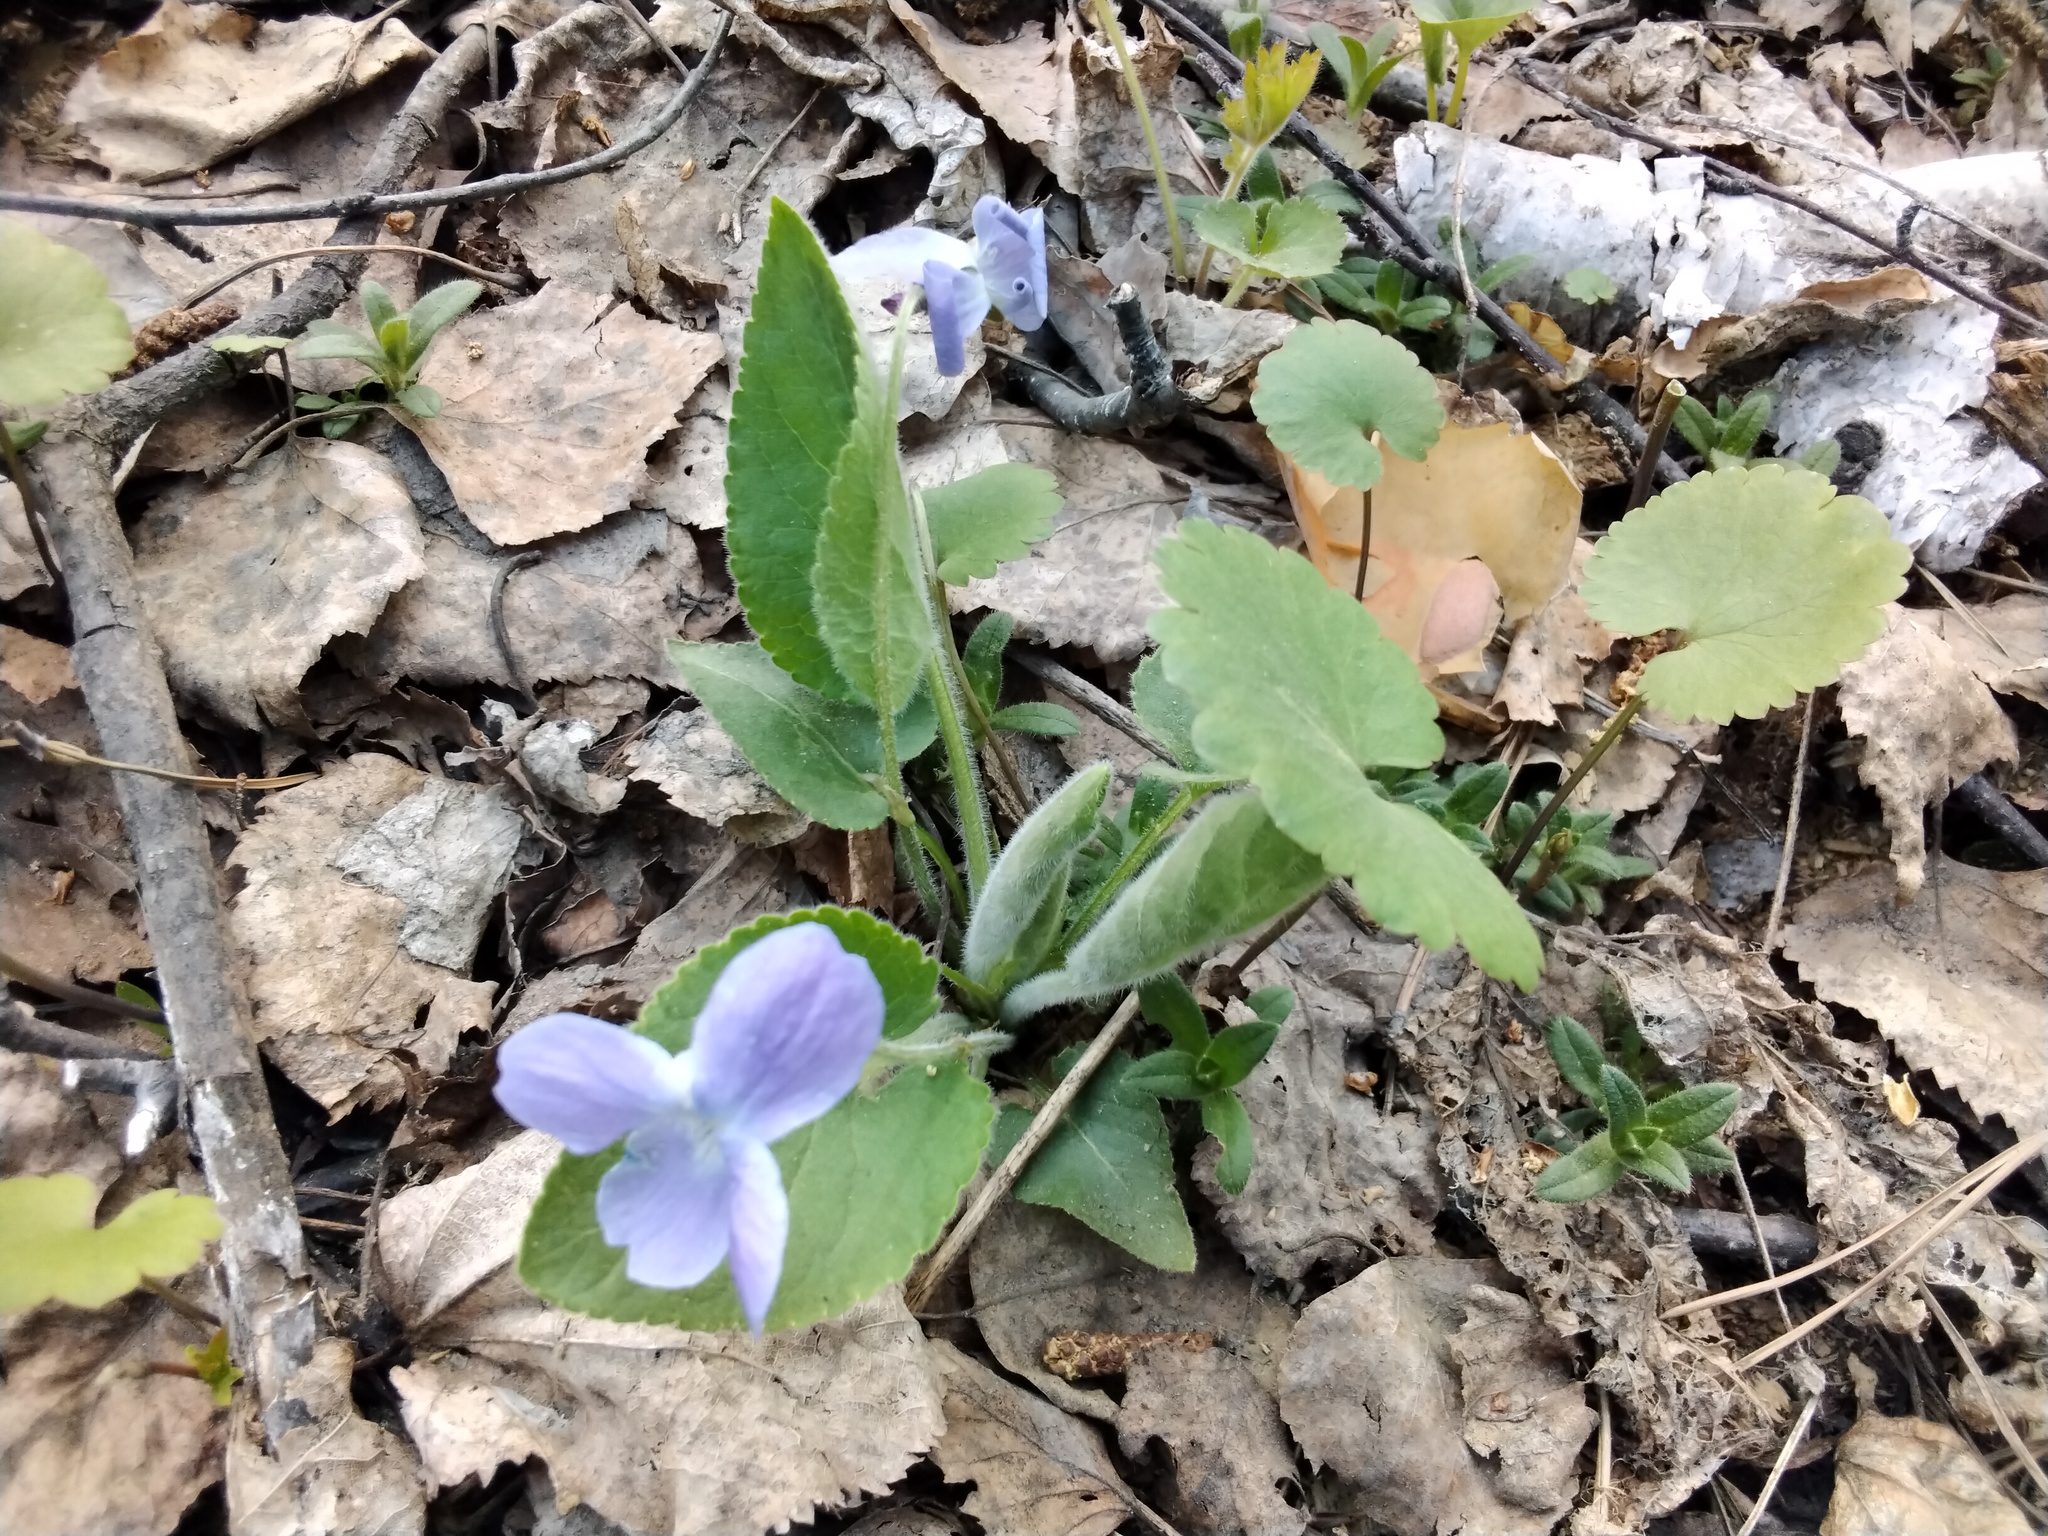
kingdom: Plantae
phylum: Tracheophyta
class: Magnoliopsida
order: Malpighiales
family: Violaceae
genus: Viola
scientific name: Viola hirta
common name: Hairy violet
